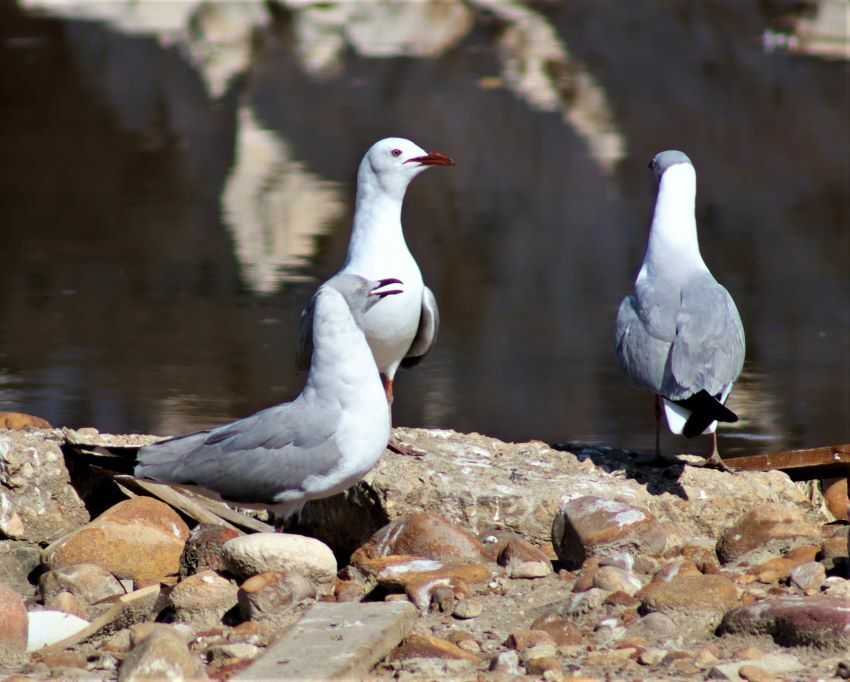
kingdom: Animalia
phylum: Chordata
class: Aves
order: Charadriiformes
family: Laridae
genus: Chroicocephalus
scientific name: Chroicocephalus cirrocephalus
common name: Grey-headed gull
